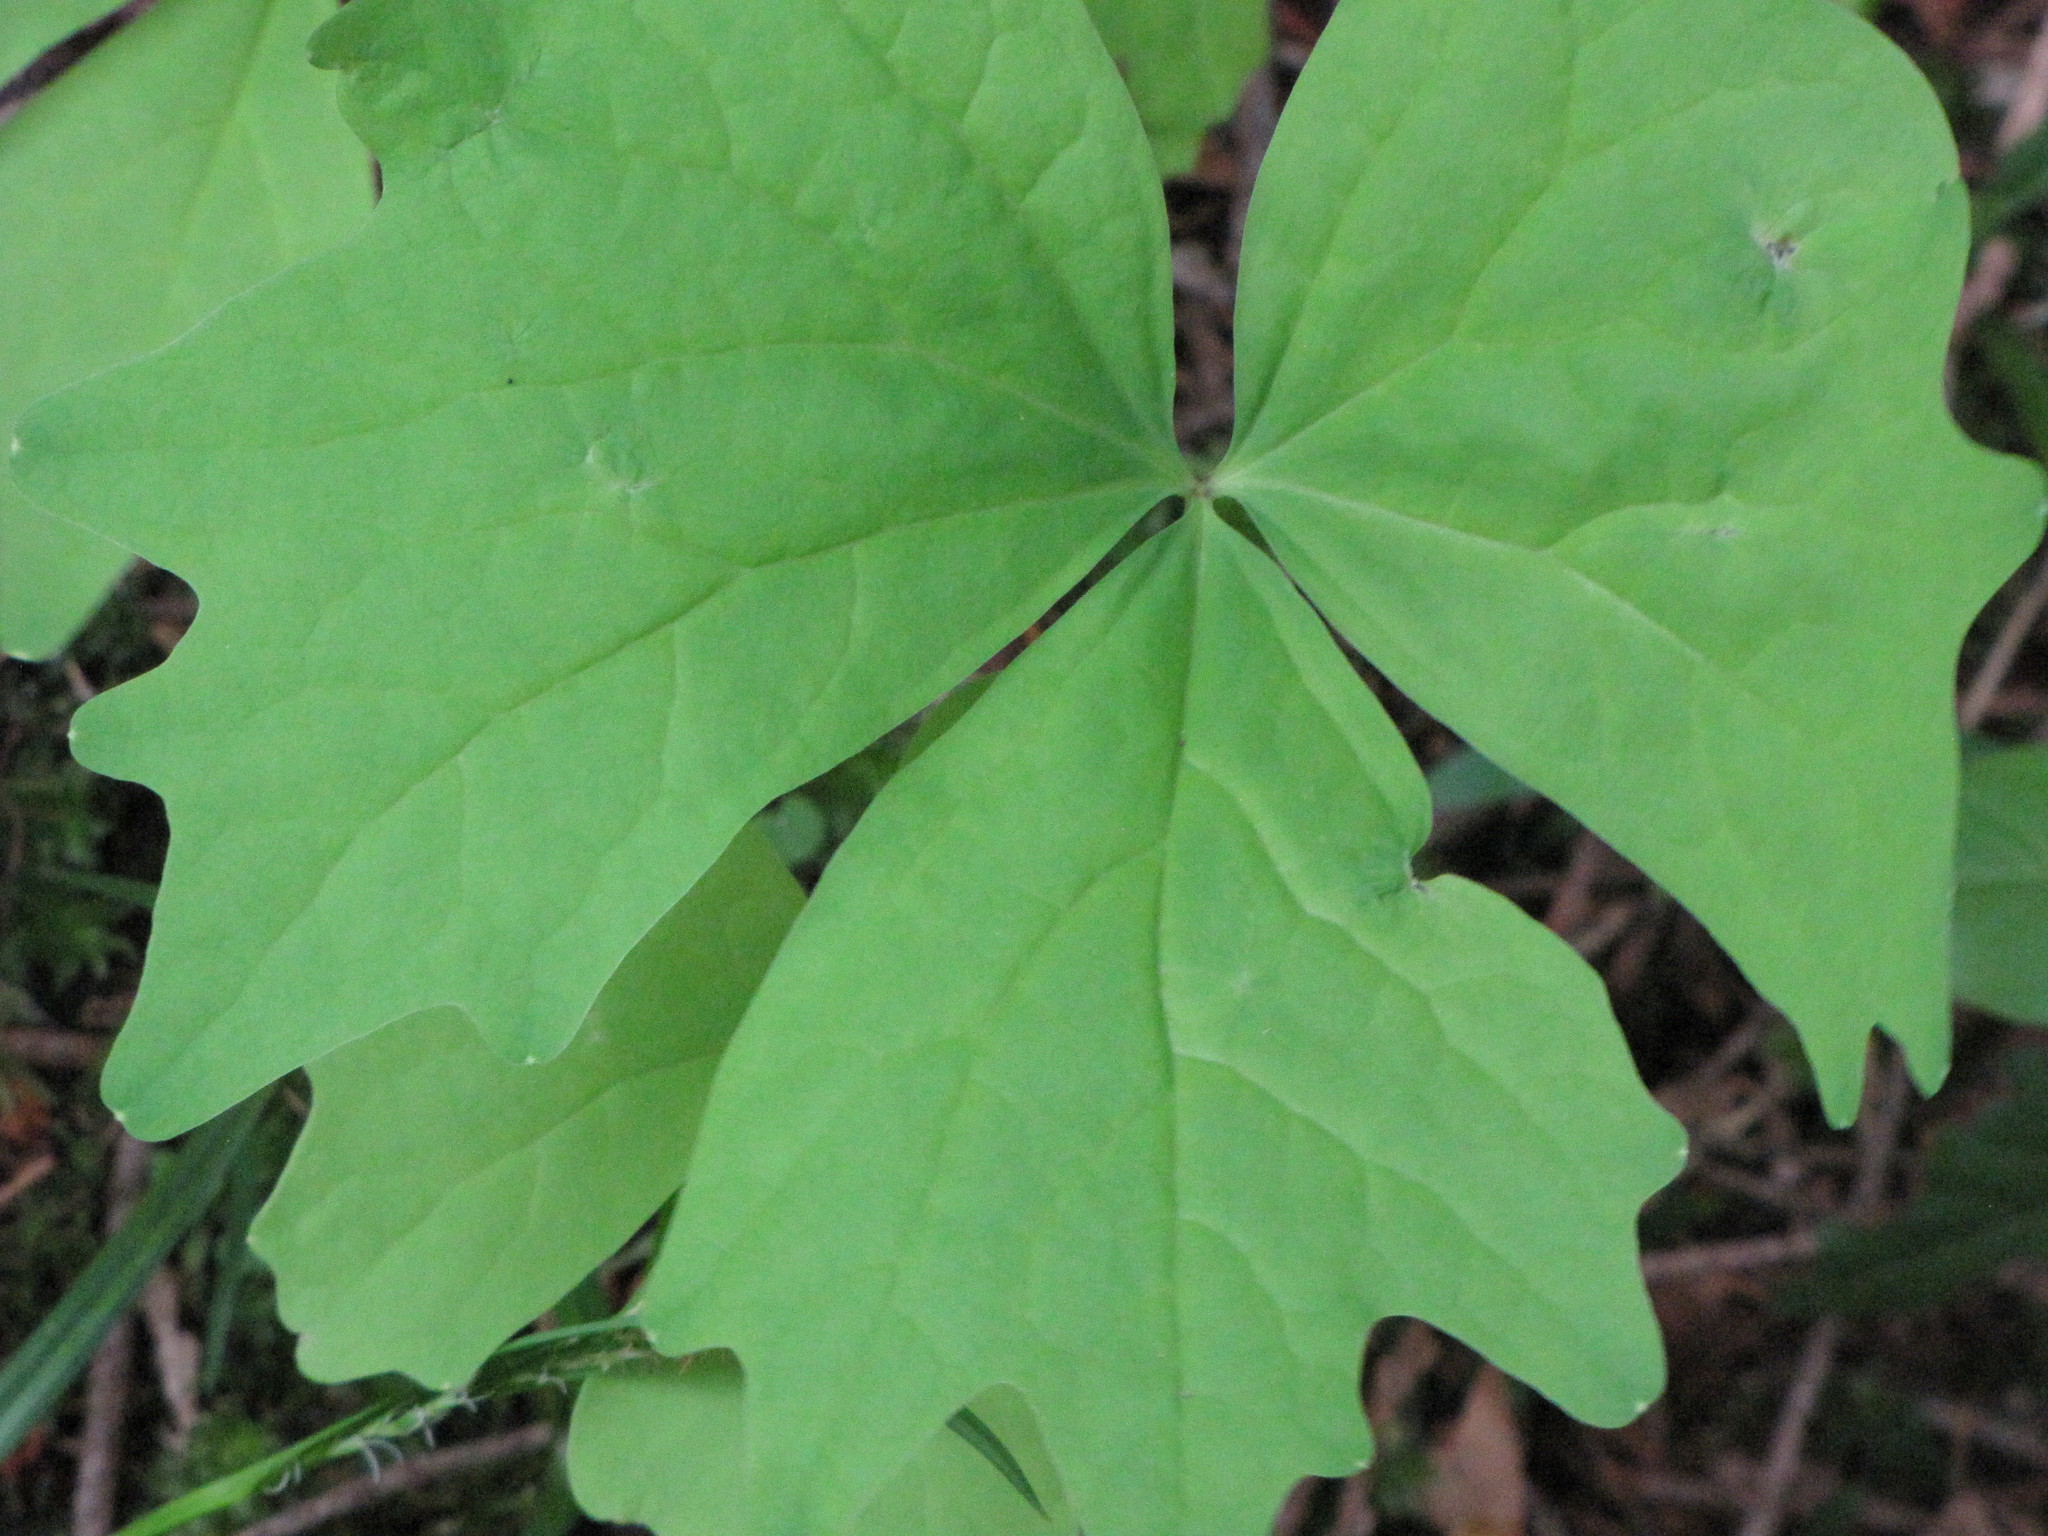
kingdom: Plantae
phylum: Tracheophyta
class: Magnoliopsida
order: Ranunculales
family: Berberidaceae
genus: Achlys
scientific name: Achlys triphylla
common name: Vanilla-leaf
